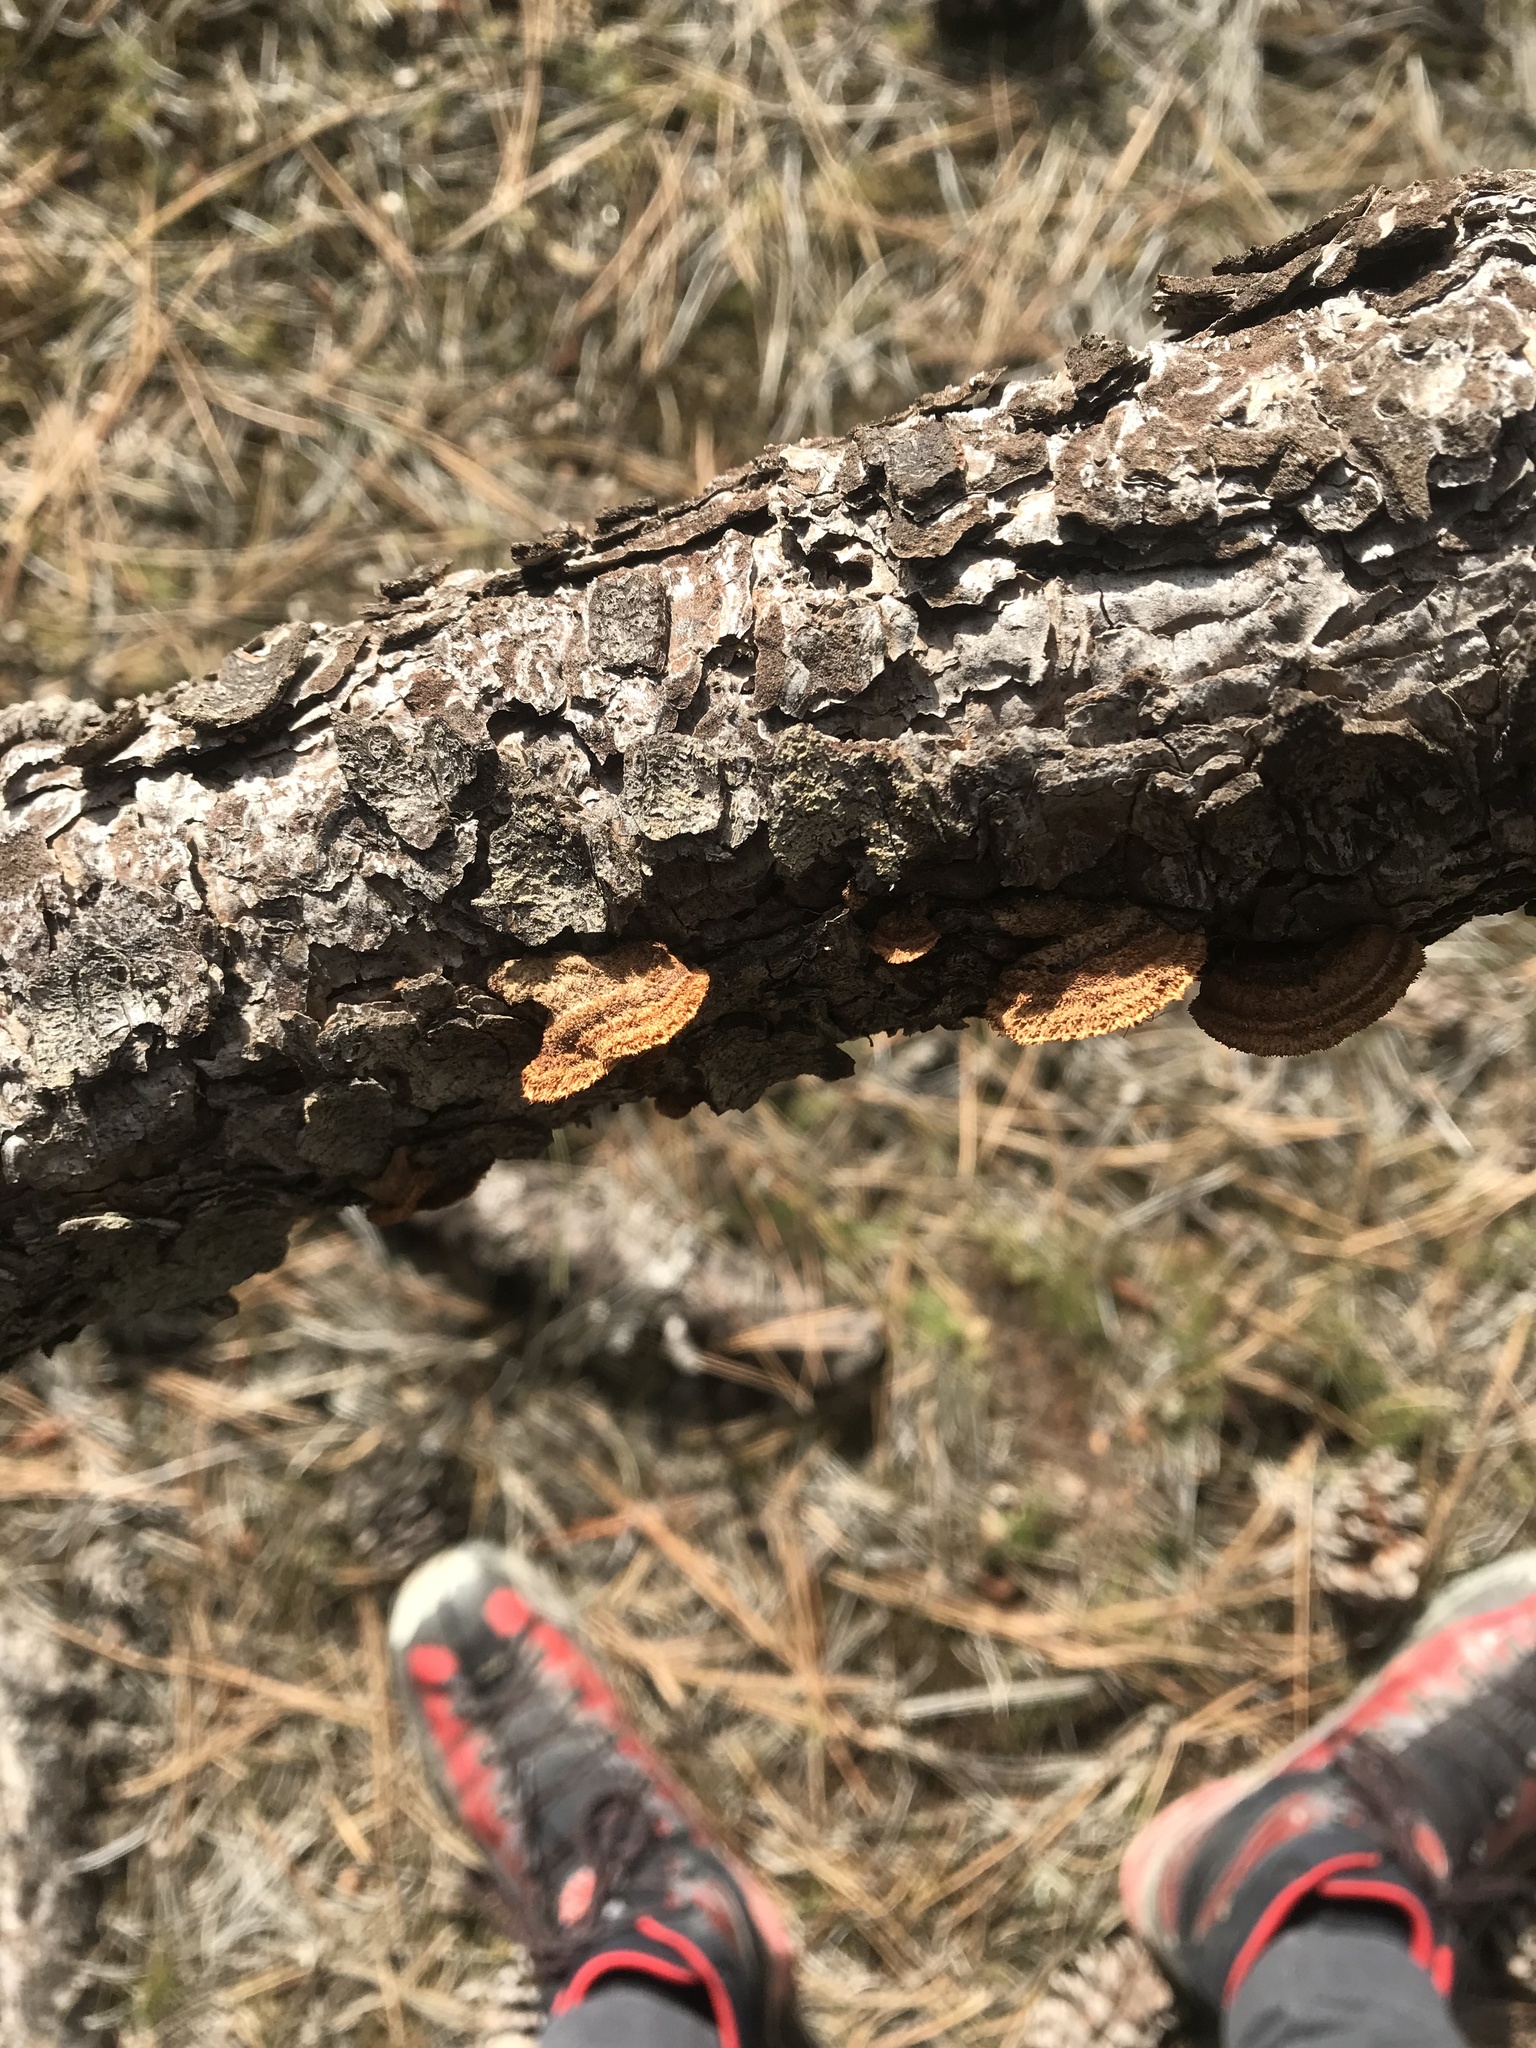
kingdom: Fungi
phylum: Basidiomycota
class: Agaricomycetes
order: Gloeophyllales
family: Gloeophyllaceae
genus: Gloeophyllum
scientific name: Gloeophyllum sepiarium
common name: Conifer mazegill
